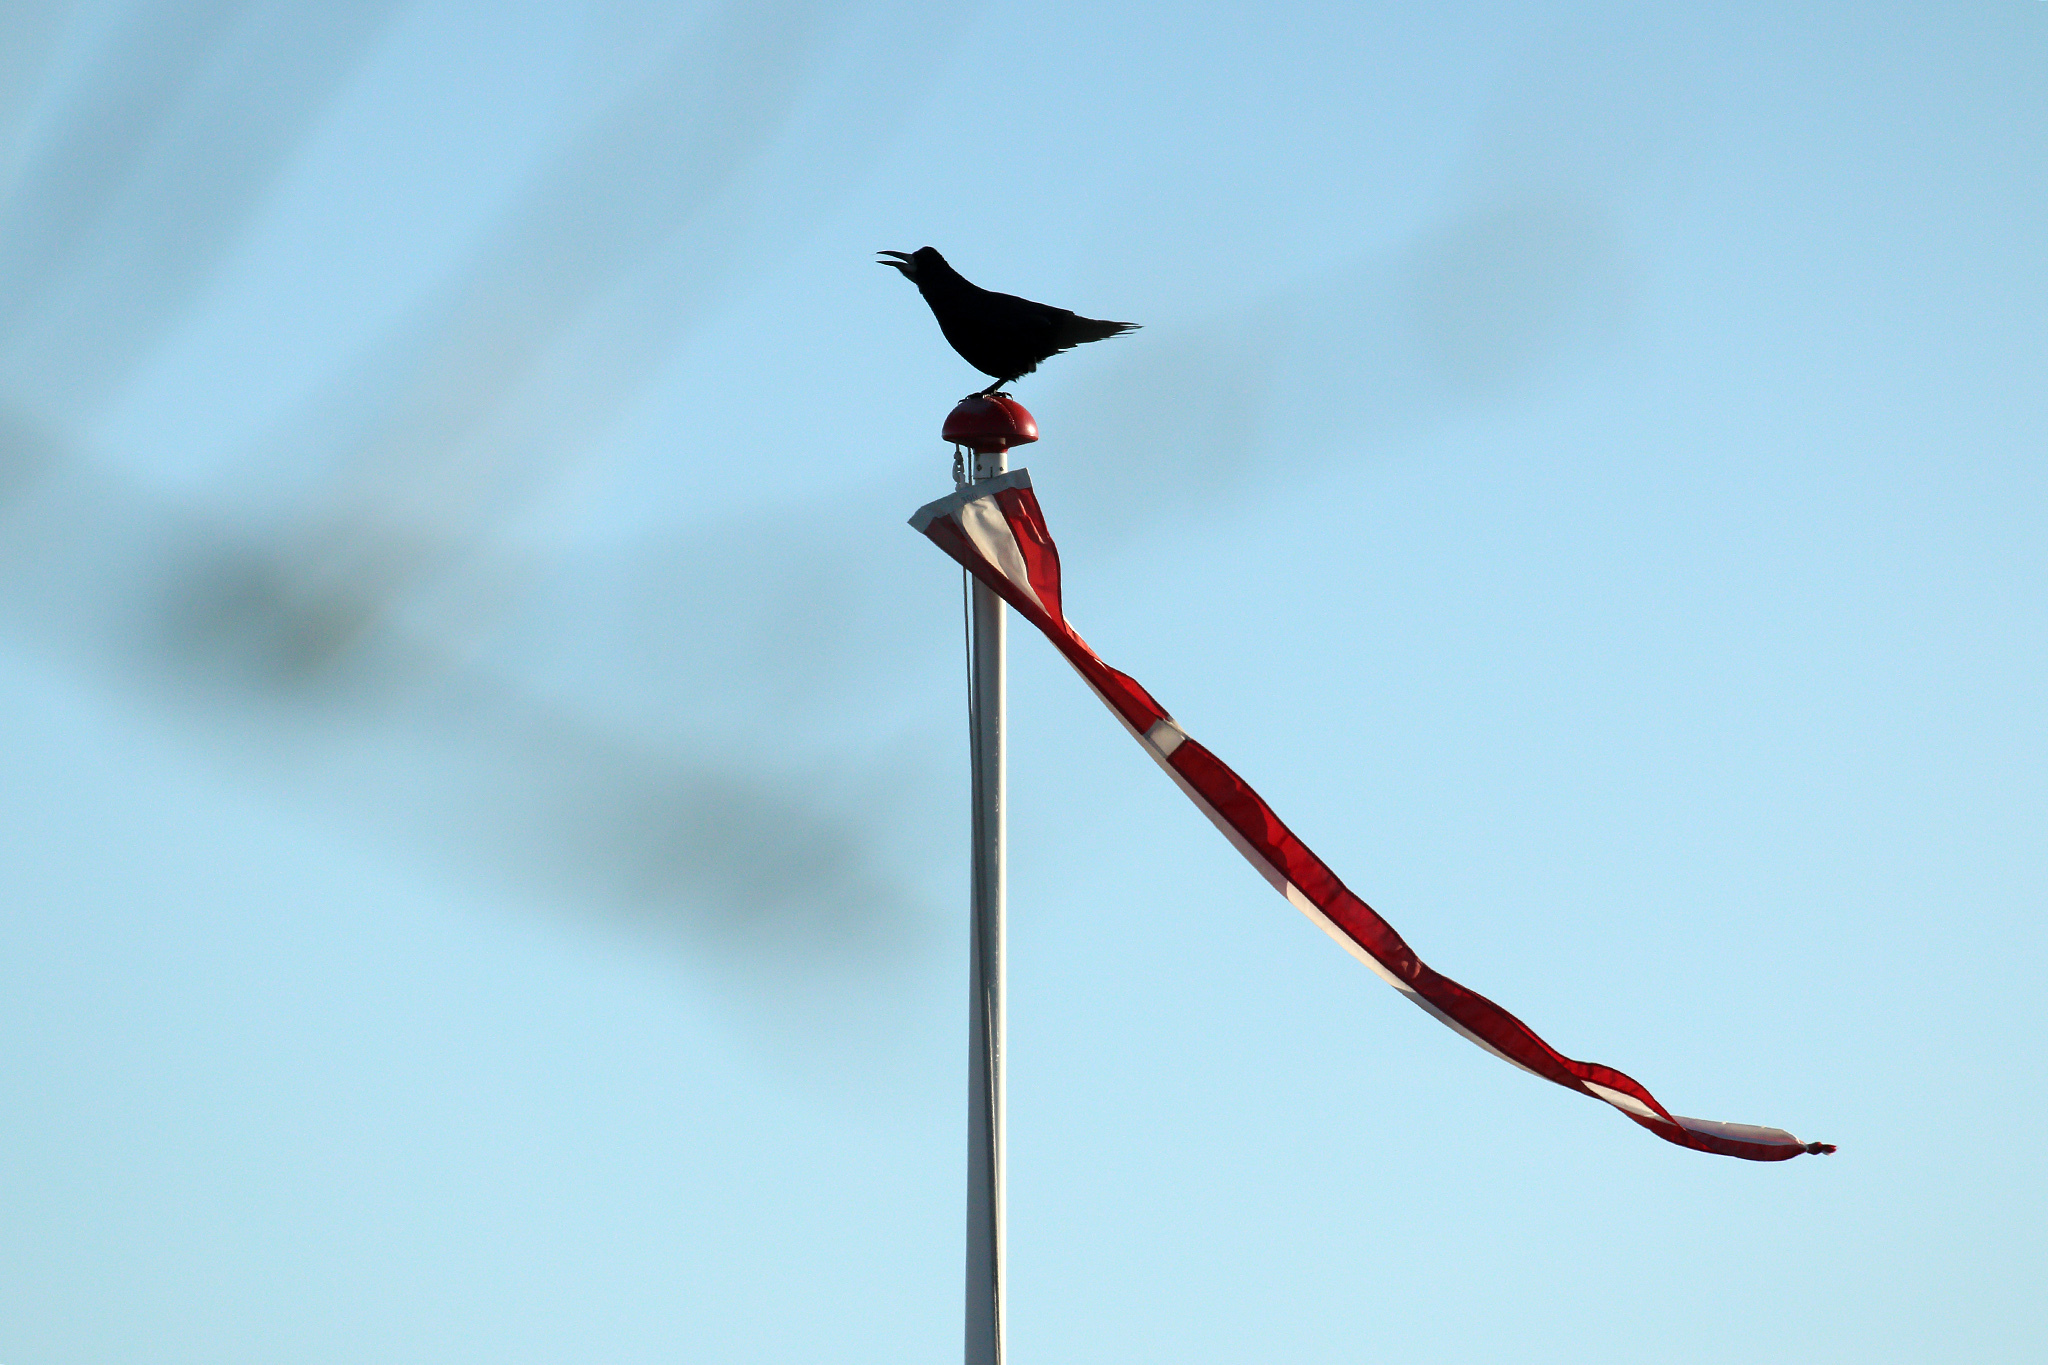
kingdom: Animalia
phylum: Chordata
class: Aves
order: Passeriformes
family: Corvidae
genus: Corvus
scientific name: Corvus frugilegus
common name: Rook
